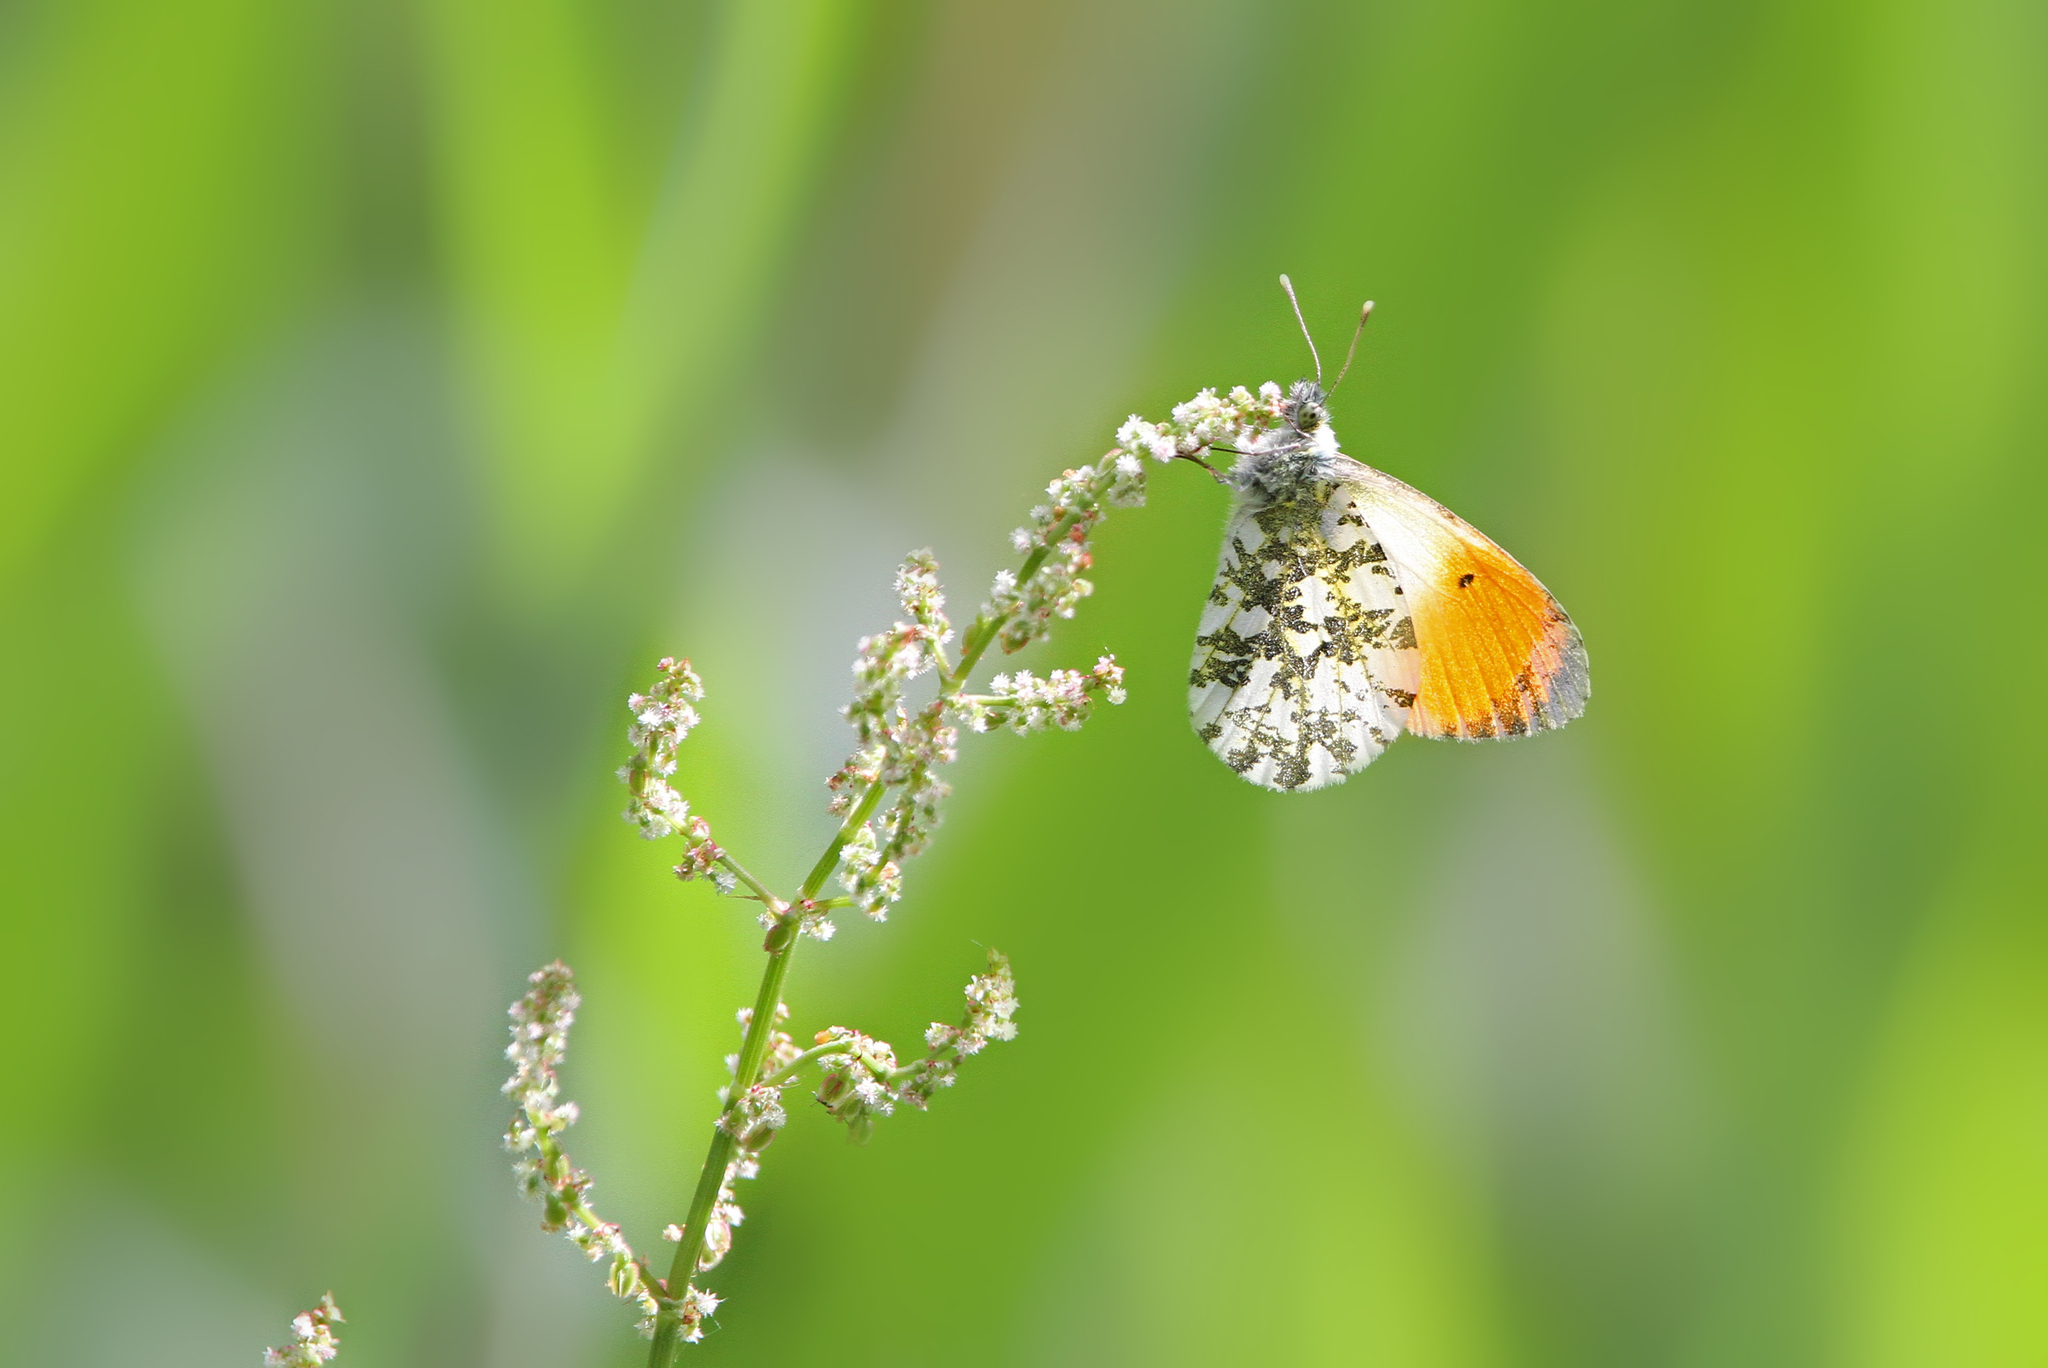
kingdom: Animalia
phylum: Arthropoda
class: Insecta
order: Lepidoptera
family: Pieridae
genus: Anthocharis
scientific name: Anthocharis cardamines
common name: Orange-tip
